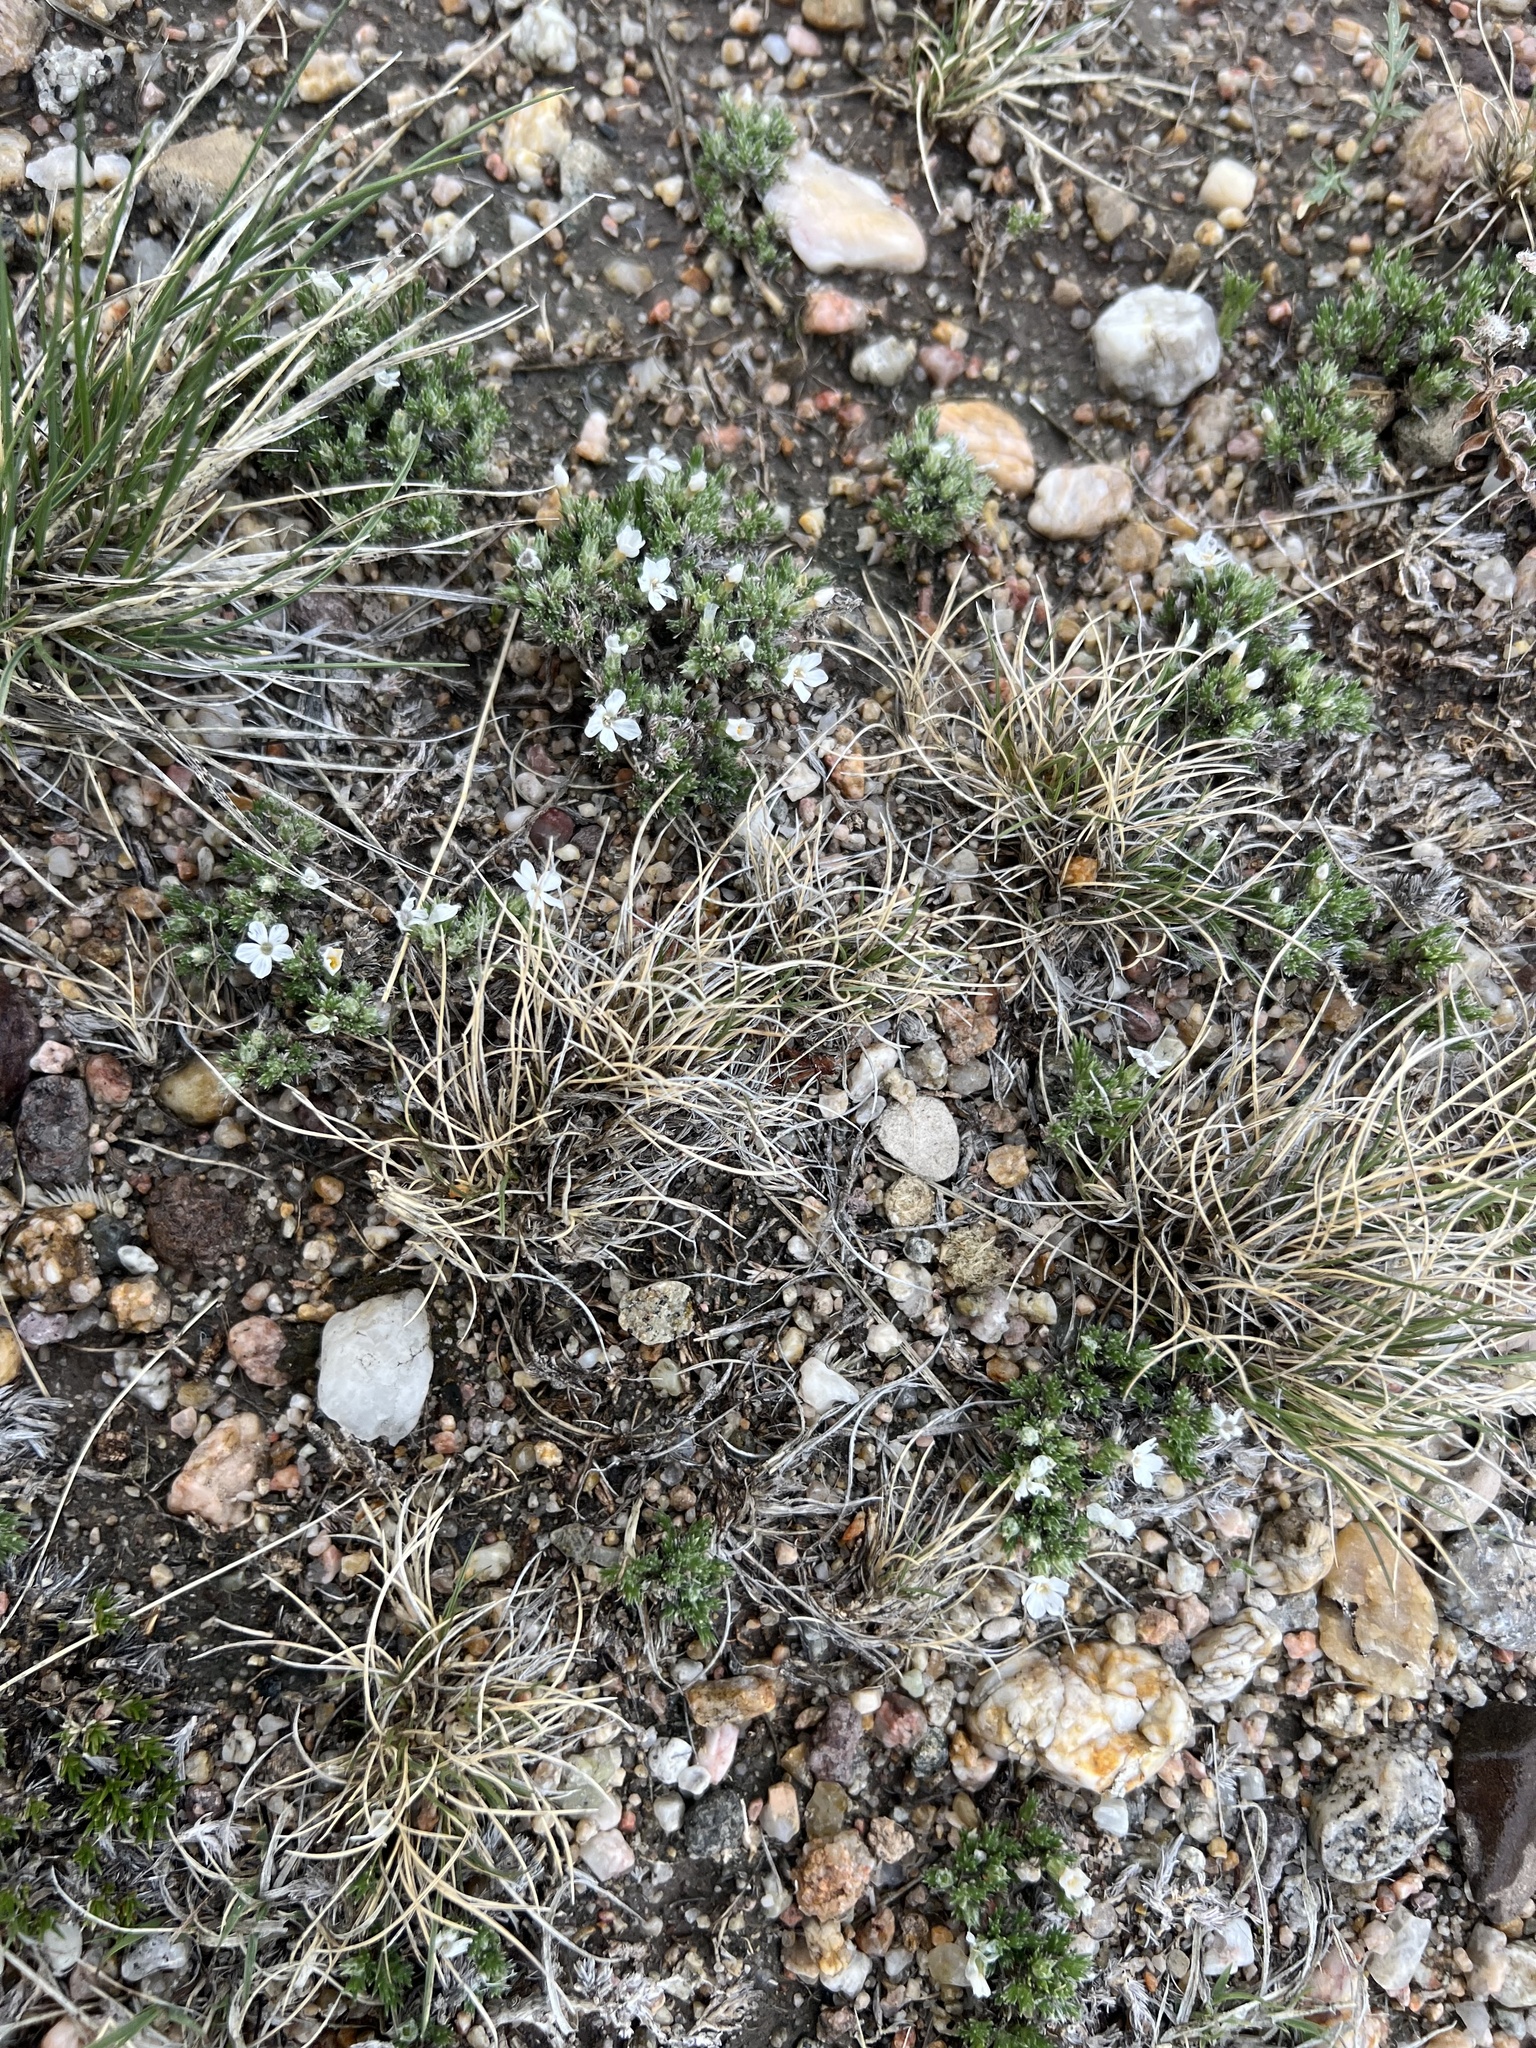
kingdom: Plantae
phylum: Tracheophyta
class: Magnoliopsida
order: Ericales
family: Polemoniaceae
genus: Phlox
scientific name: Phlox hoodii
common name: Moss phlox
